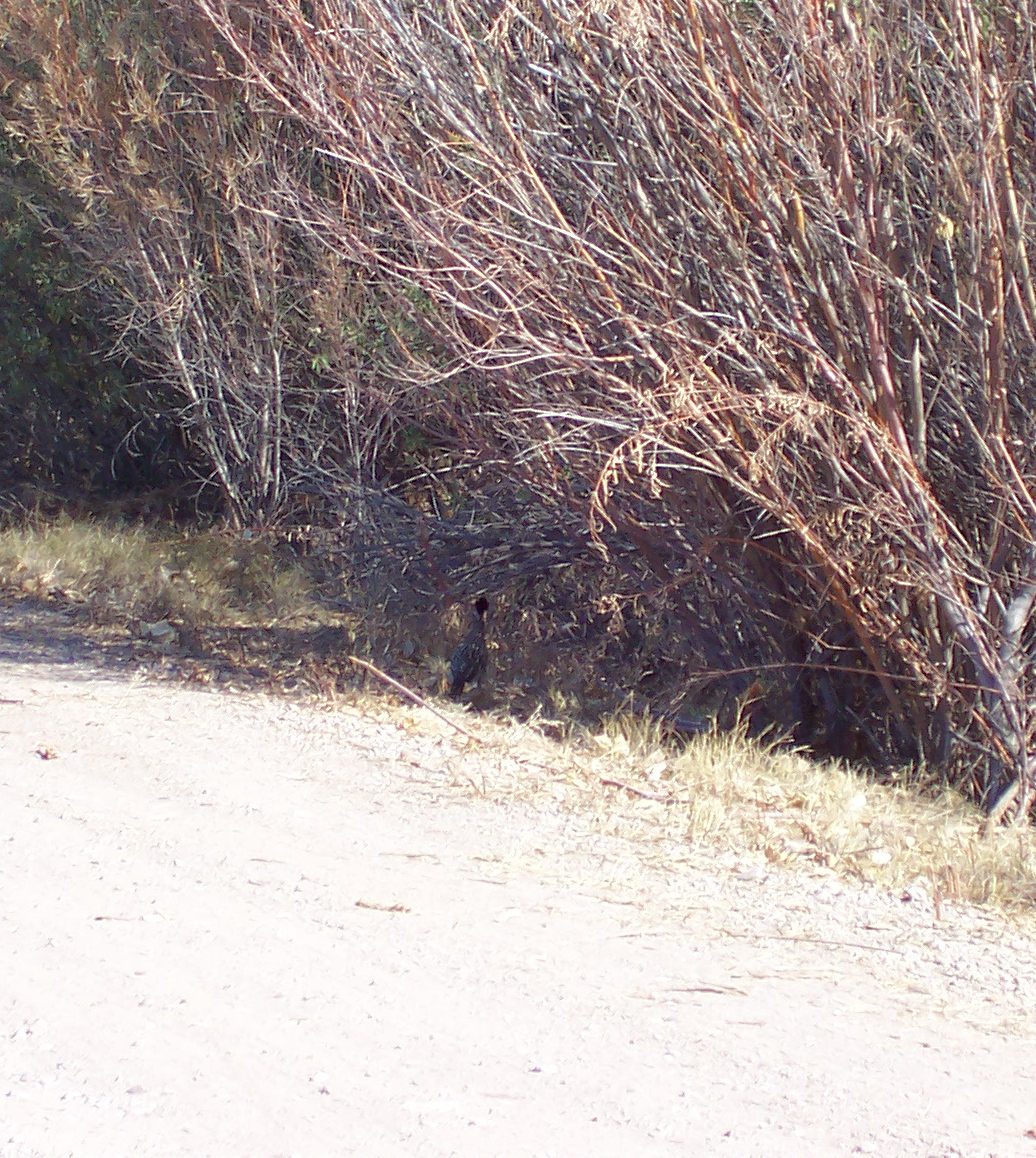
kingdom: Animalia
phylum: Chordata
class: Aves
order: Cuculiformes
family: Cuculidae
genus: Geococcyx
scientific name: Geococcyx californianus
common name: Greater roadrunner
